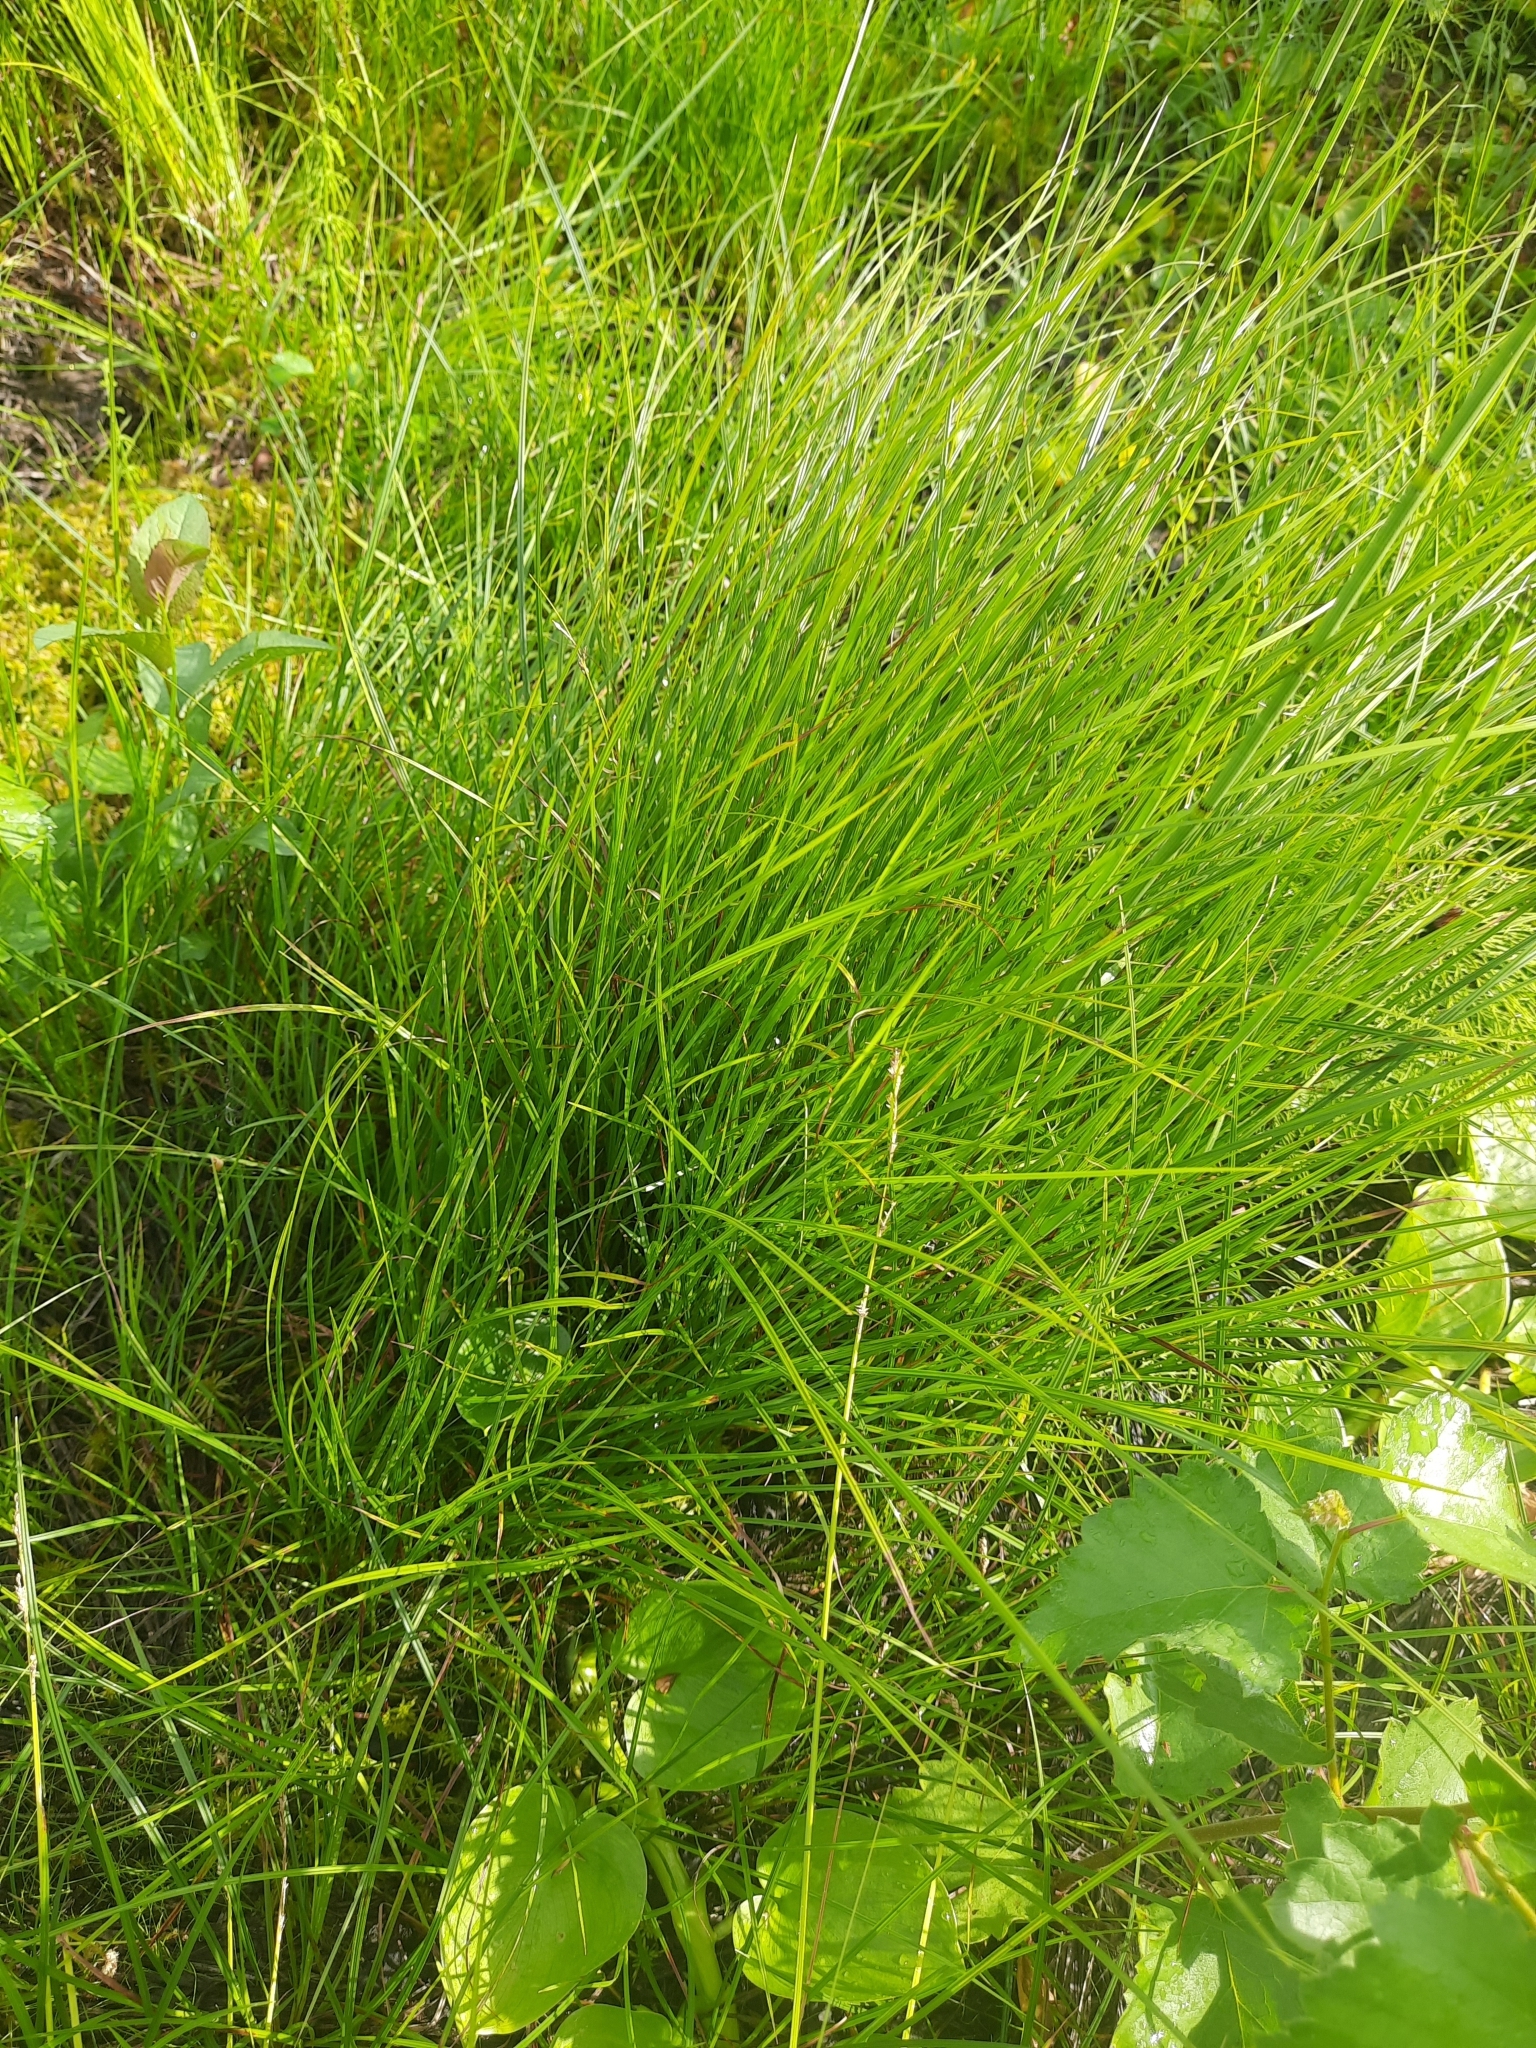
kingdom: Plantae
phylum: Tracheophyta
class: Liliopsida
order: Poales
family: Cyperaceae
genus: Eleocharis
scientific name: Eleocharis palustris
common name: Common spike-rush
